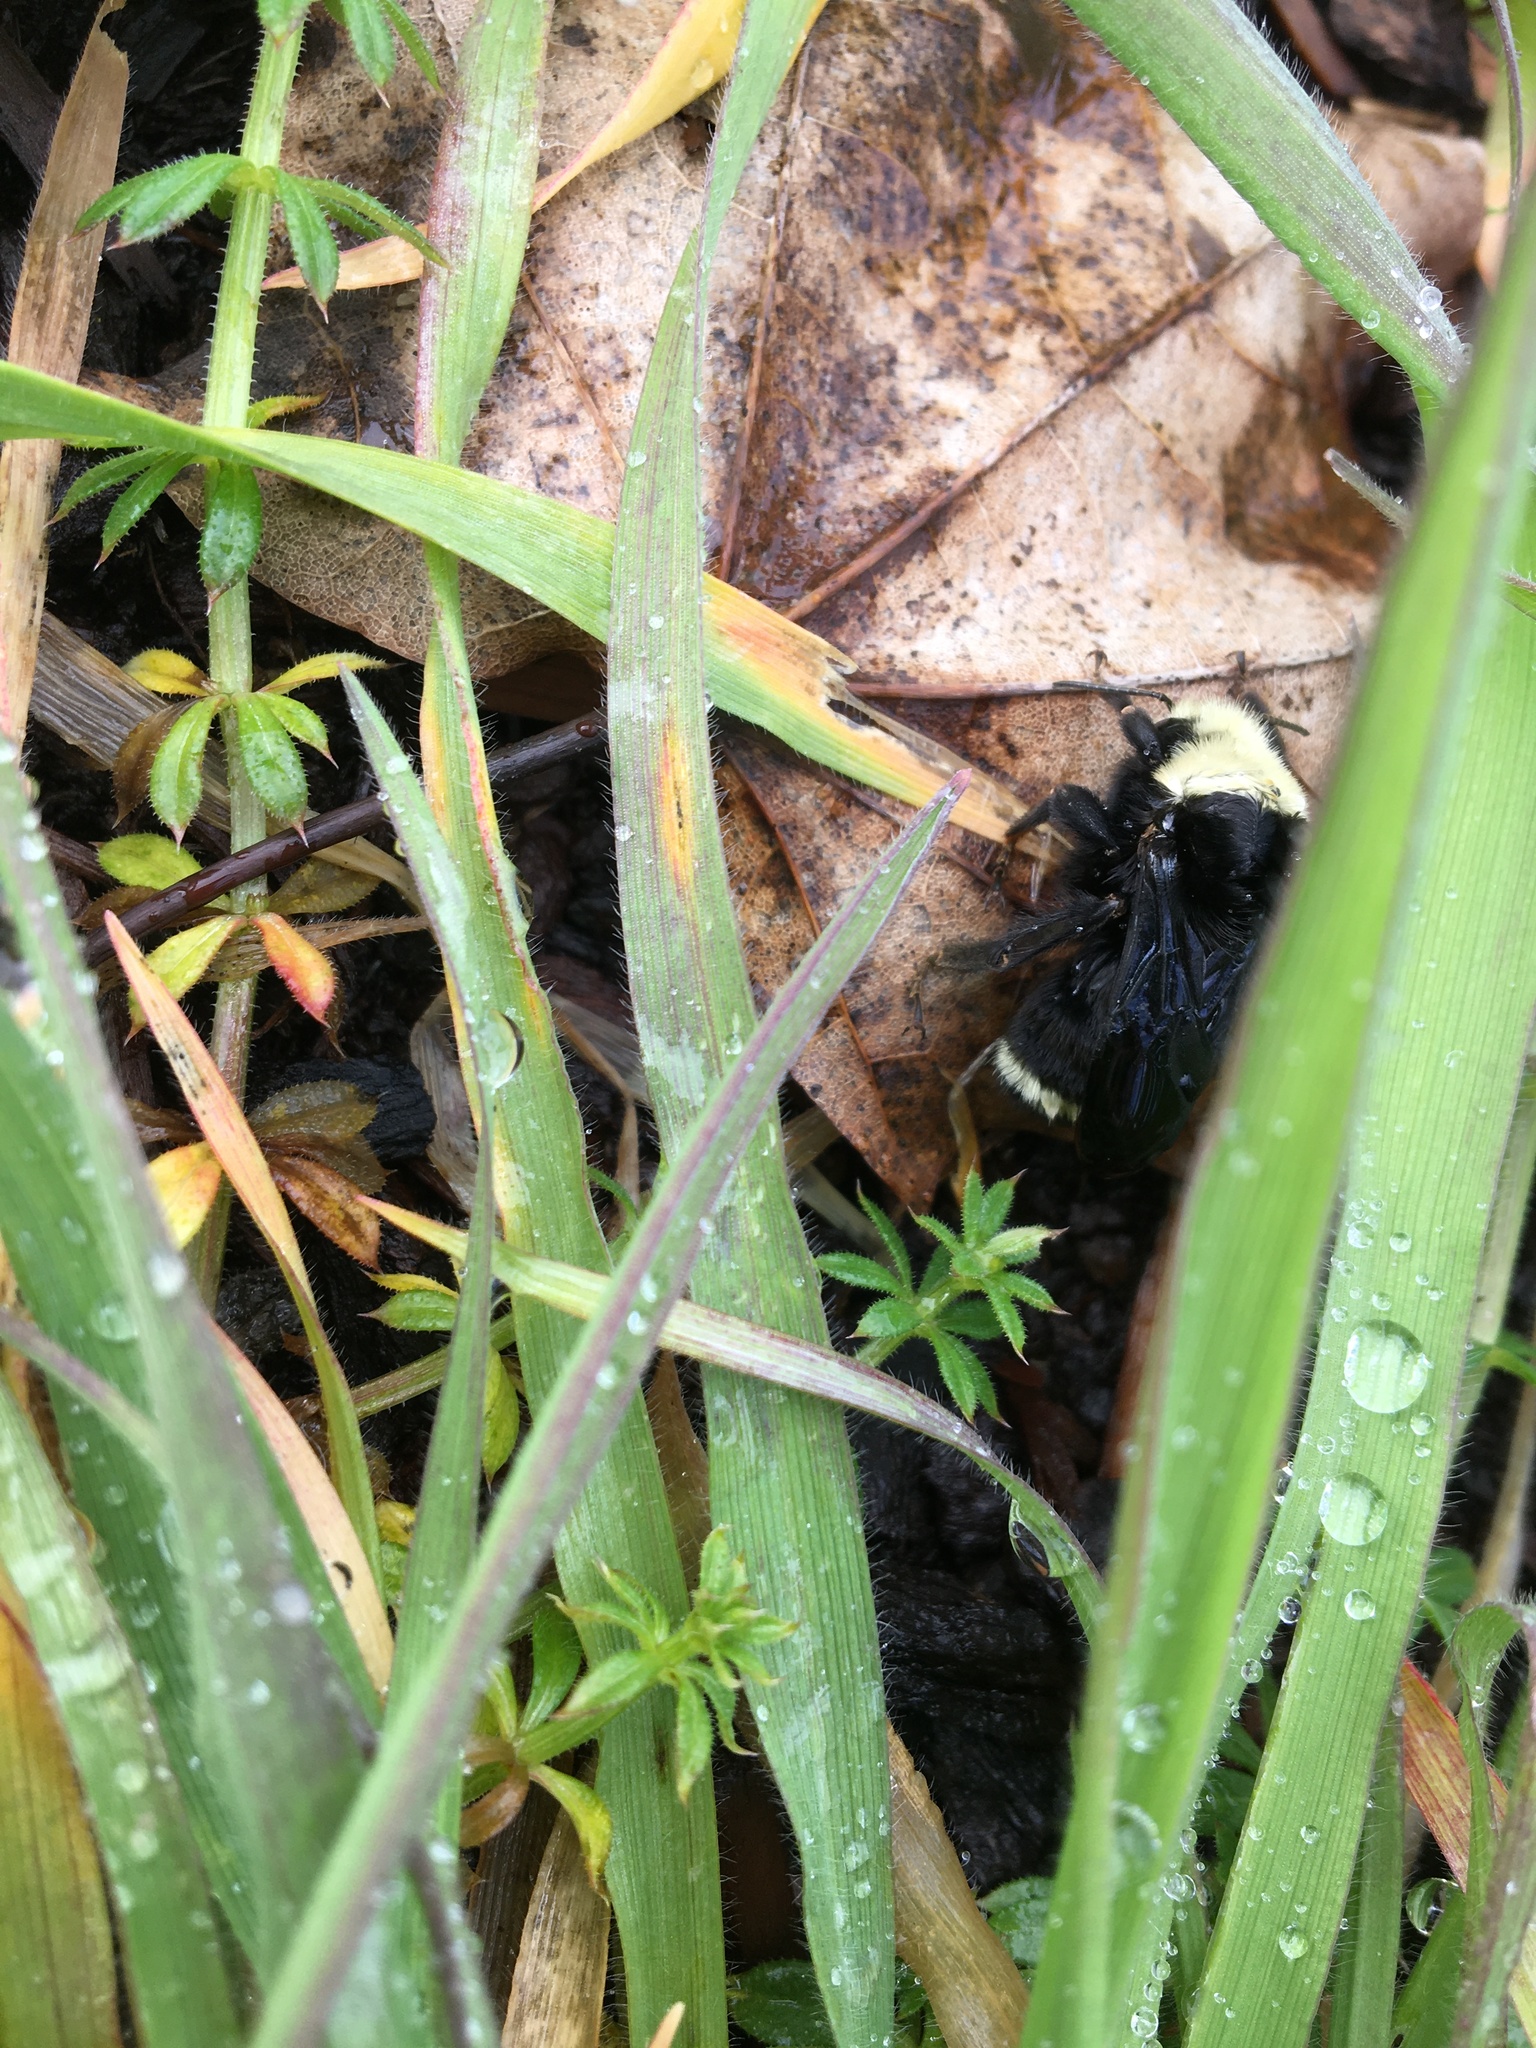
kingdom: Animalia
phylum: Arthropoda
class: Insecta
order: Hymenoptera
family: Apidae
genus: Bombus
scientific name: Bombus vosnesenskii
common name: Vosnesensky bumble bee
